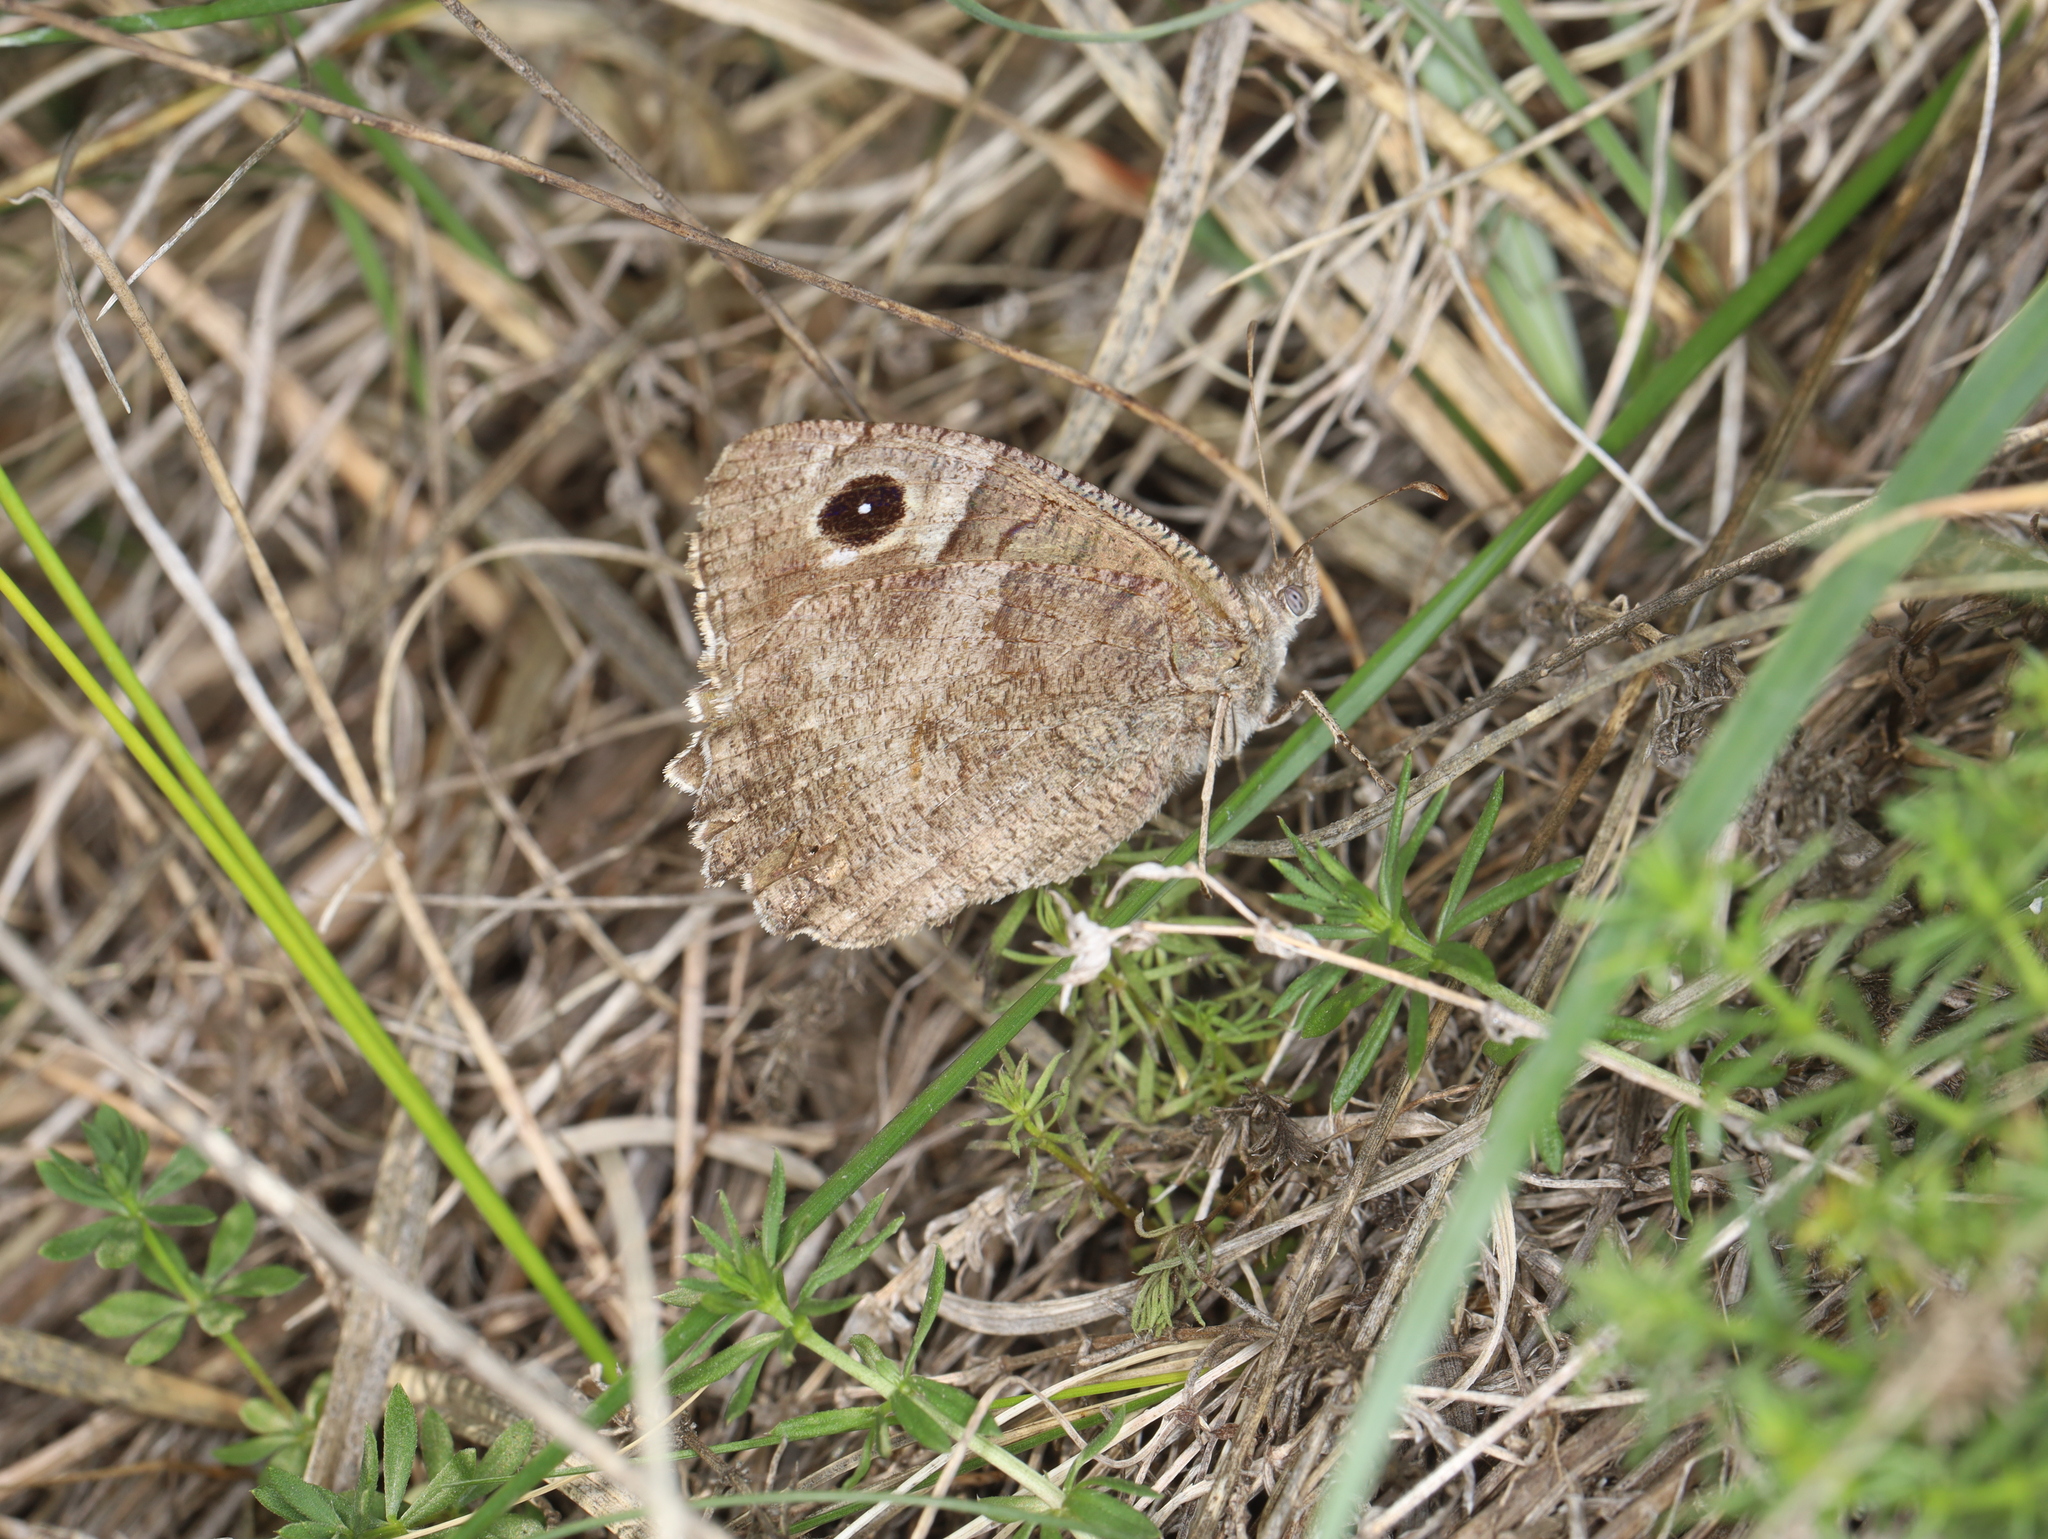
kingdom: Animalia
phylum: Arthropoda
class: Insecta
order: Lepidoptera
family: Nymphalidae
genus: Hipparchia
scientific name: Hipparchia statilinus
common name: Tree grayling
